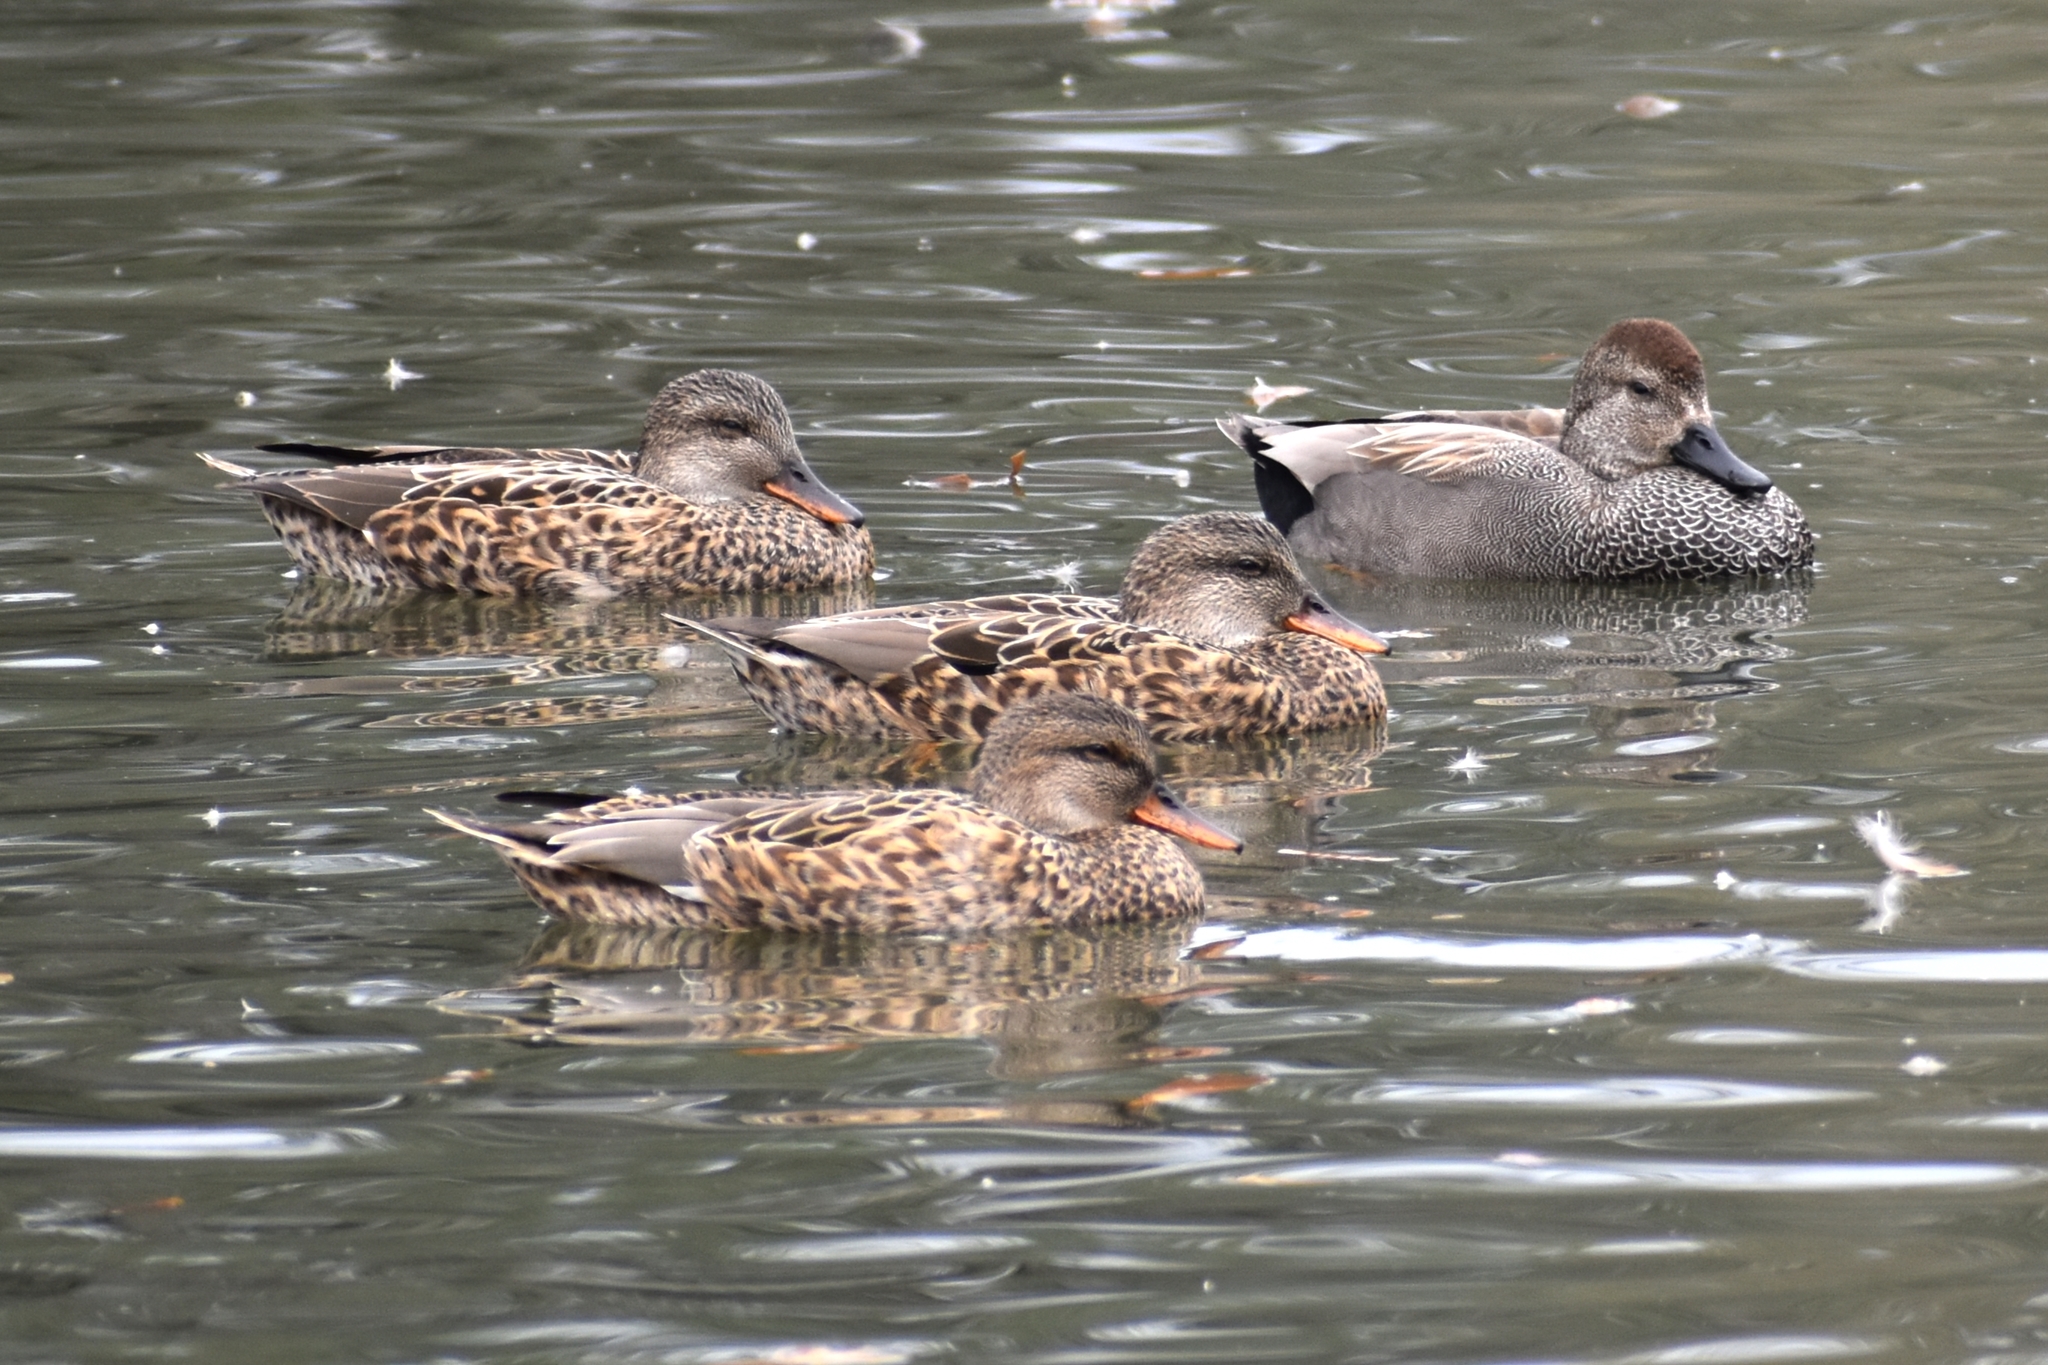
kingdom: Animalia
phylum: Chordata
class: Aves
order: Anseriformes
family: Anatidae
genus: Mareca
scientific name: Mareca strepera
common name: Gadwall
